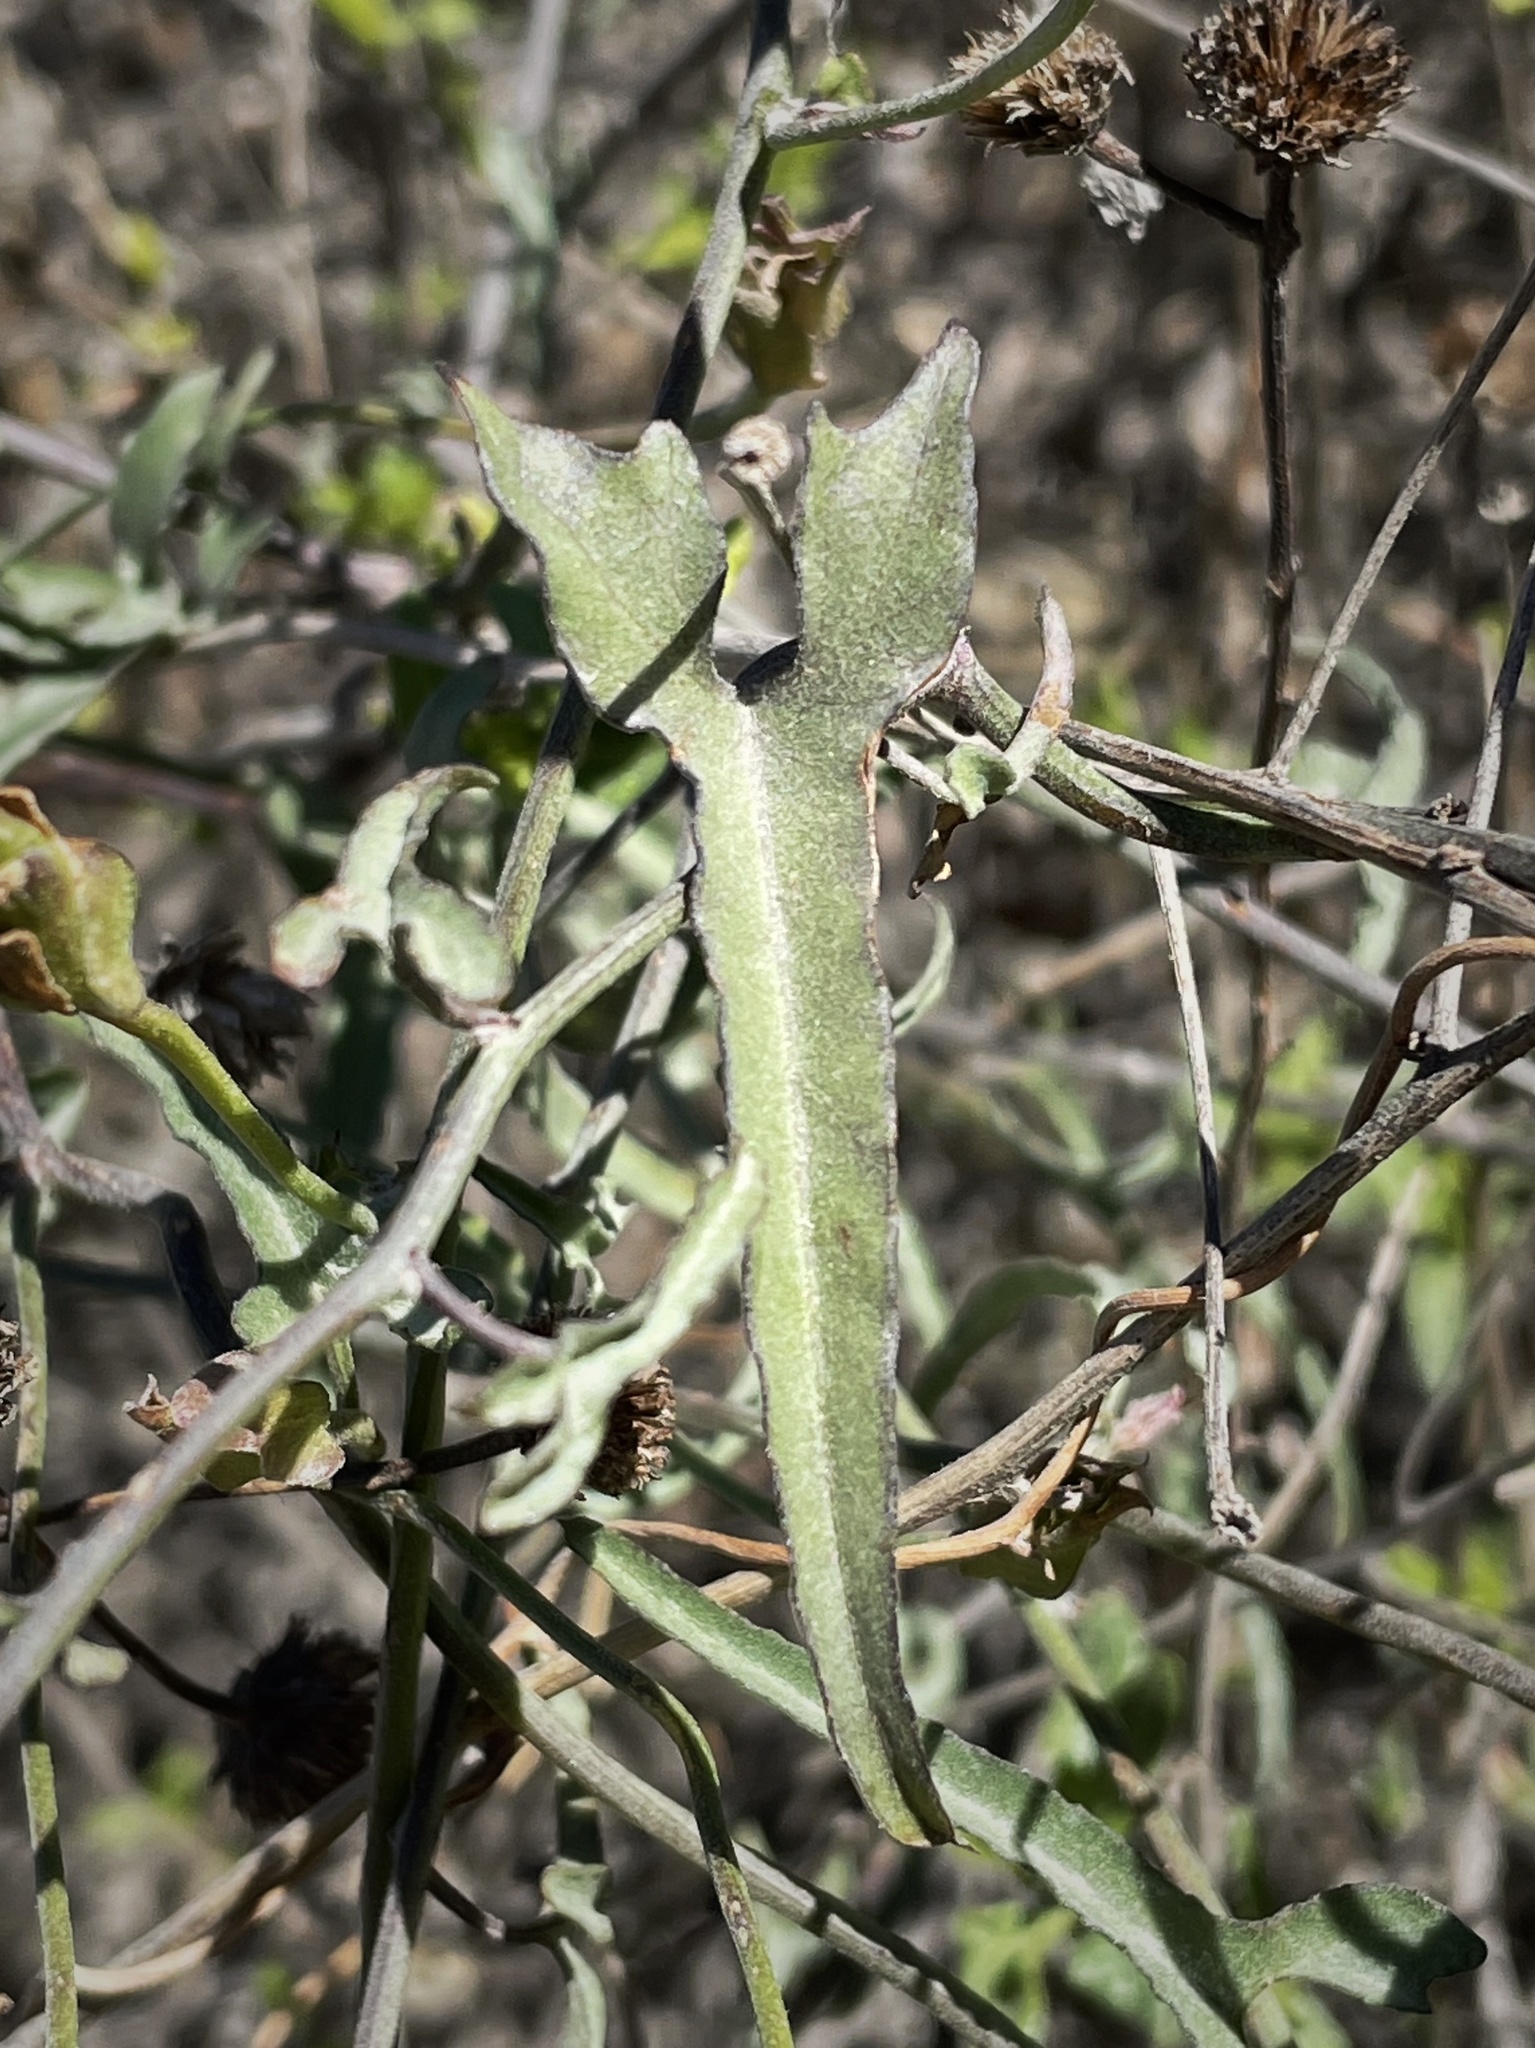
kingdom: Plantae
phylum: Tracheophyta
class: Magnoliopsida
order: Solanales
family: Convolvulaceae
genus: Calystegia
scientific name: Calystegia macrostegia
